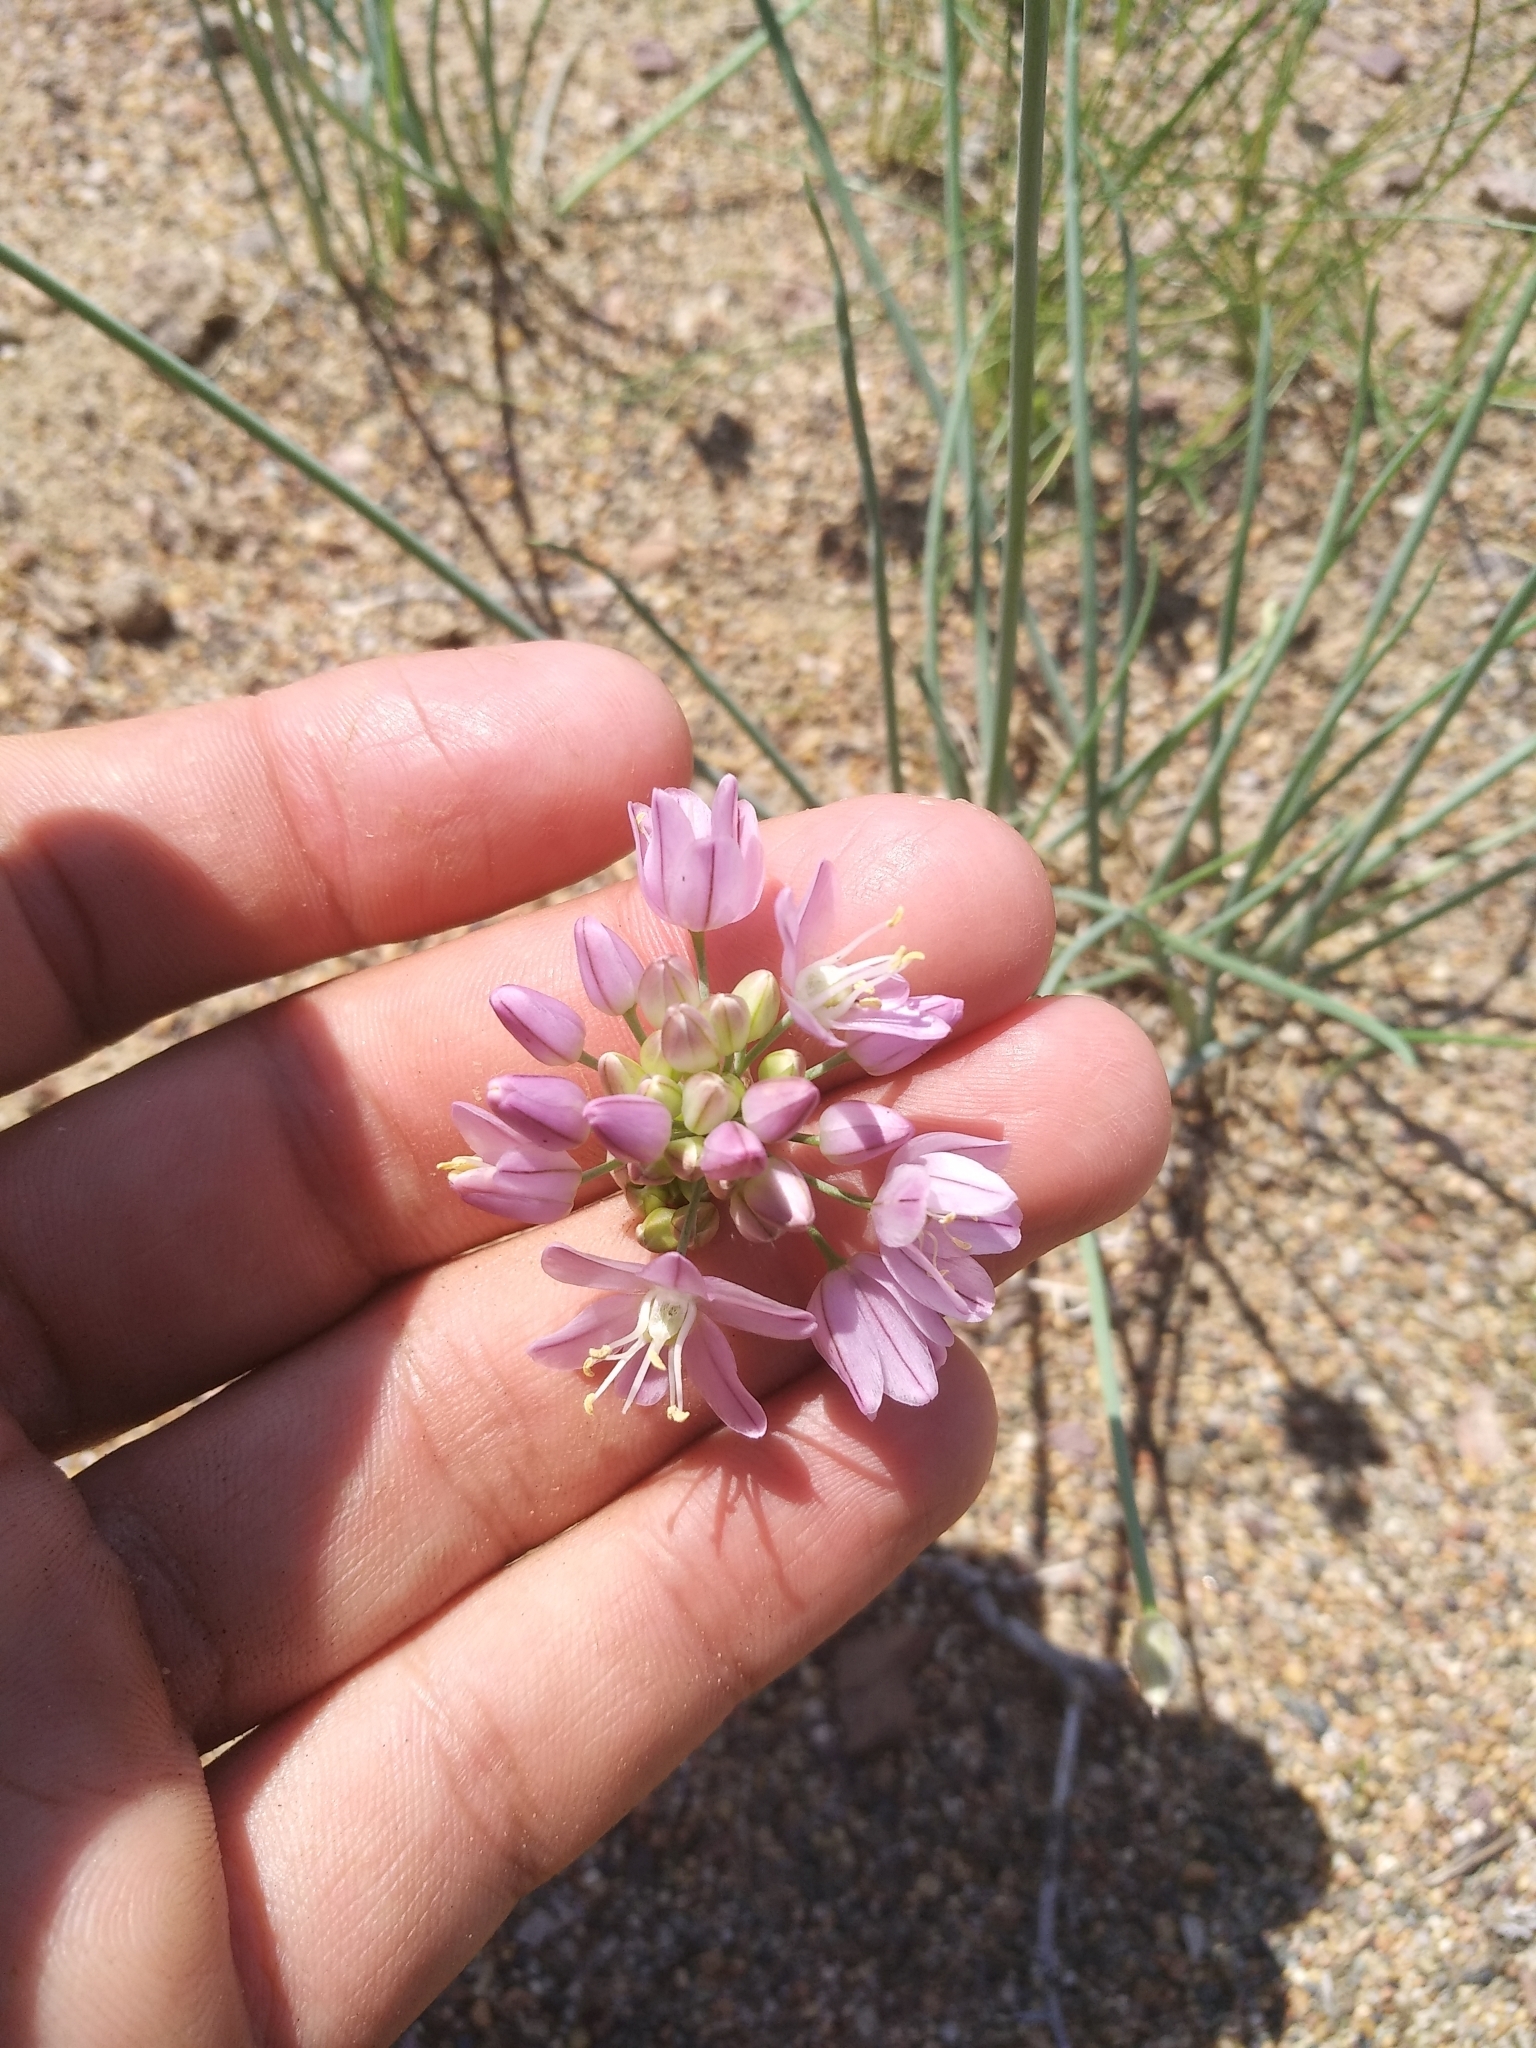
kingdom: Plantae
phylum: Tracheophyta
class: Liliopsida
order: Asparagales
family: Amaryllidaceae
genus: Allium
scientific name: Allium mongolicum
